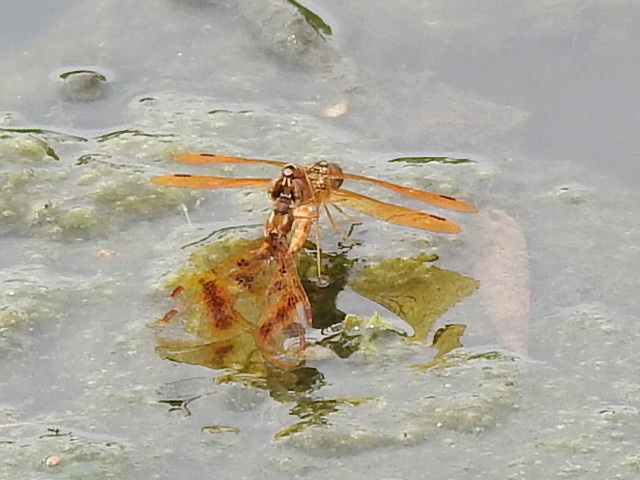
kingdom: Animalia
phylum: Arthropoda
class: Insecta
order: Odonata
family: Libellulidae
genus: Perithemis
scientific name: Perithemis tenera
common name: Eastern amberwing
